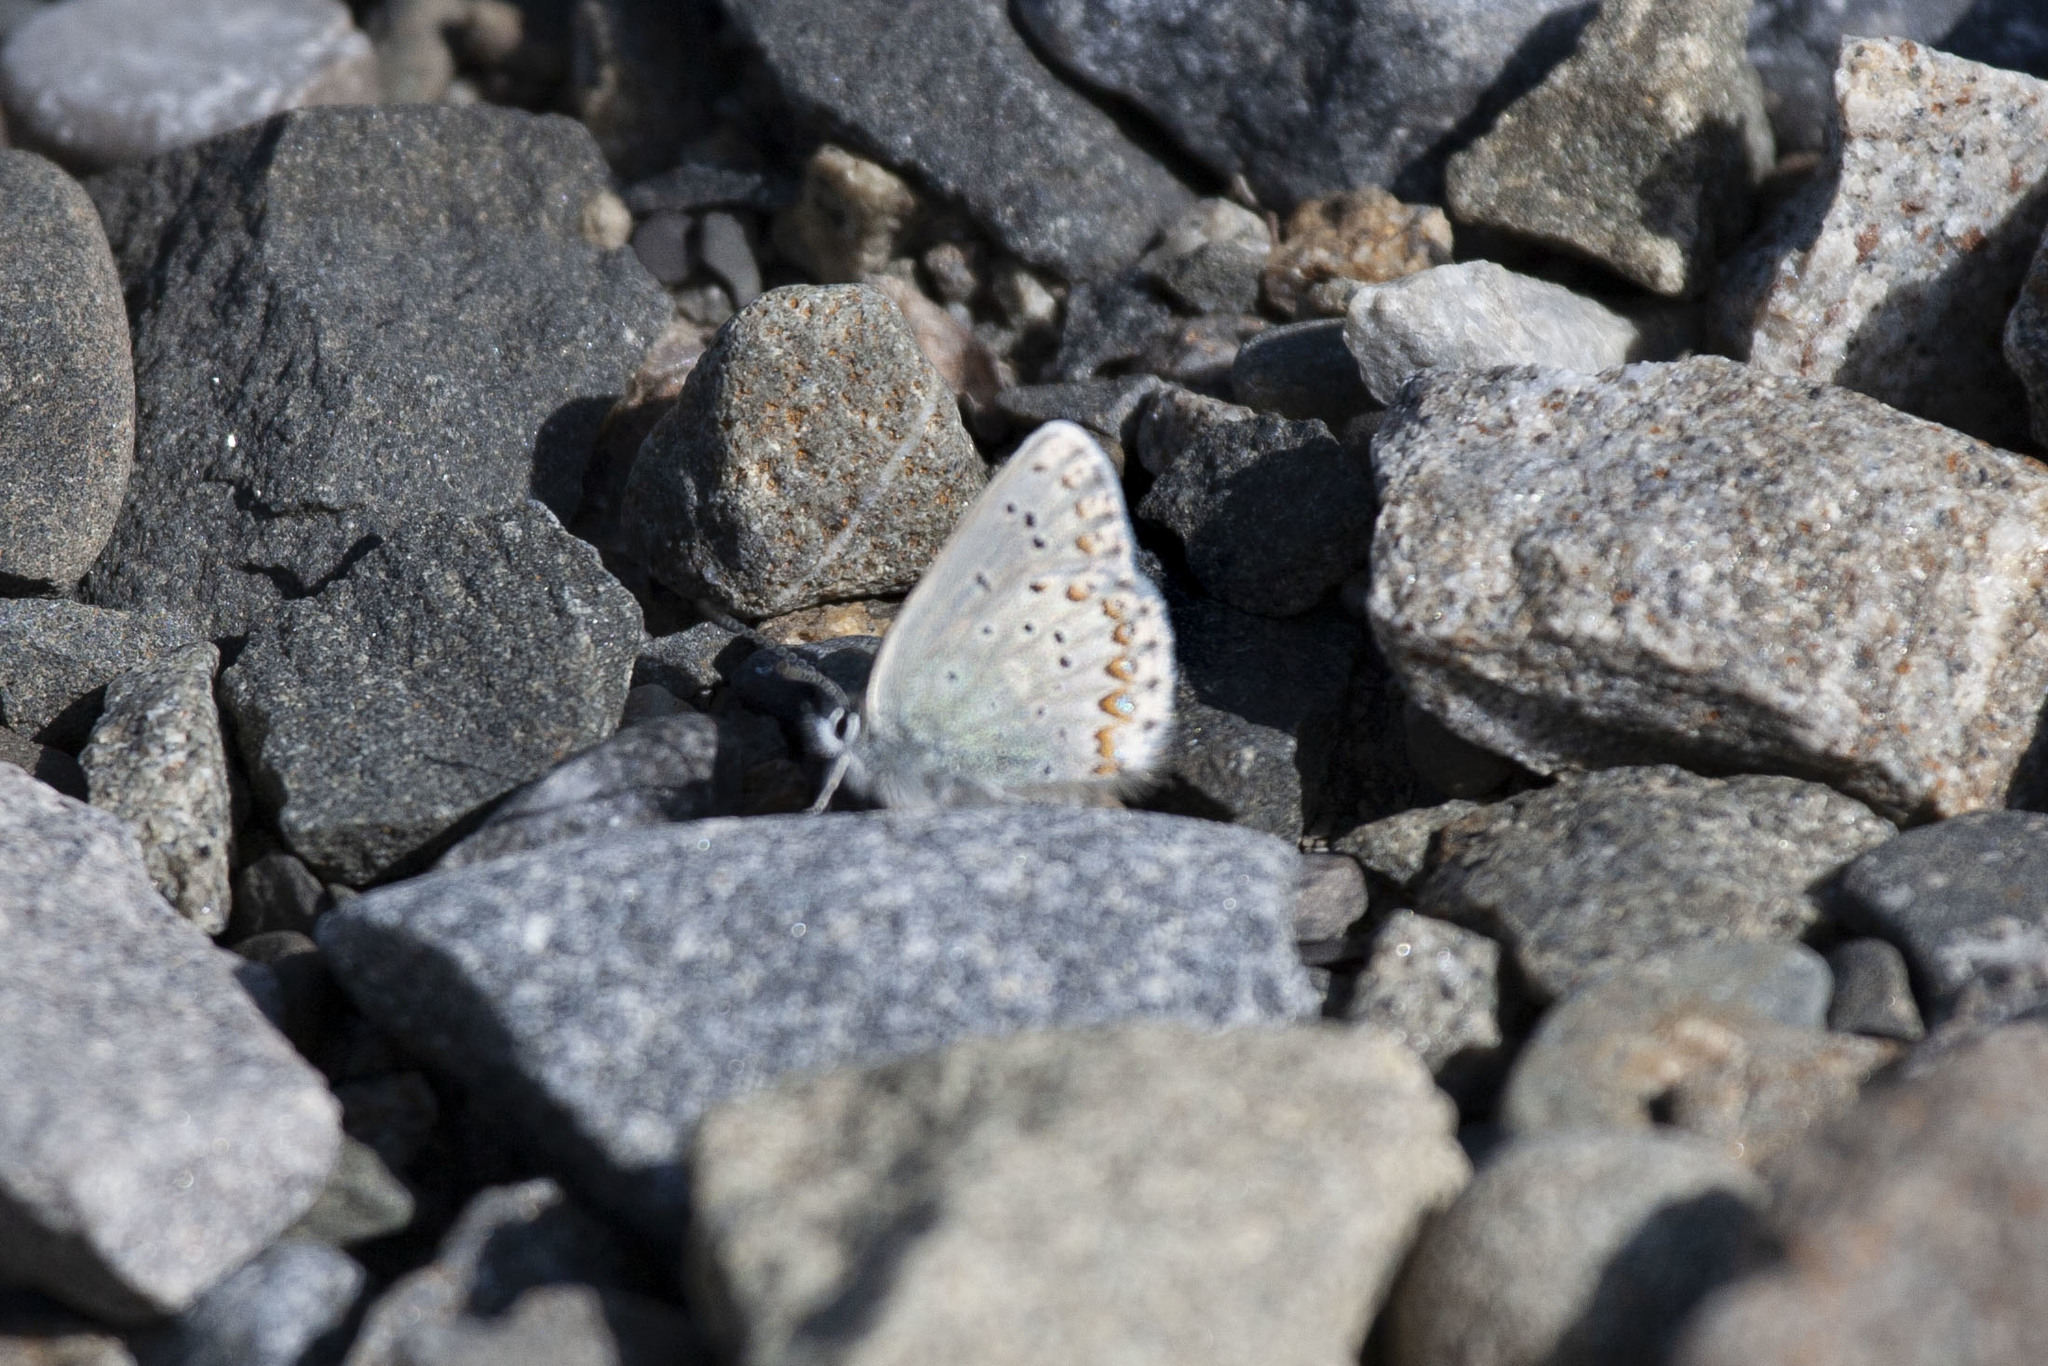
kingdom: Animalia
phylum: Arthropoda
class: Insecta
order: Lepidoptera
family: Lycaenidae
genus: Lycaeides
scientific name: Lycaeides idas
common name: Northern blue
